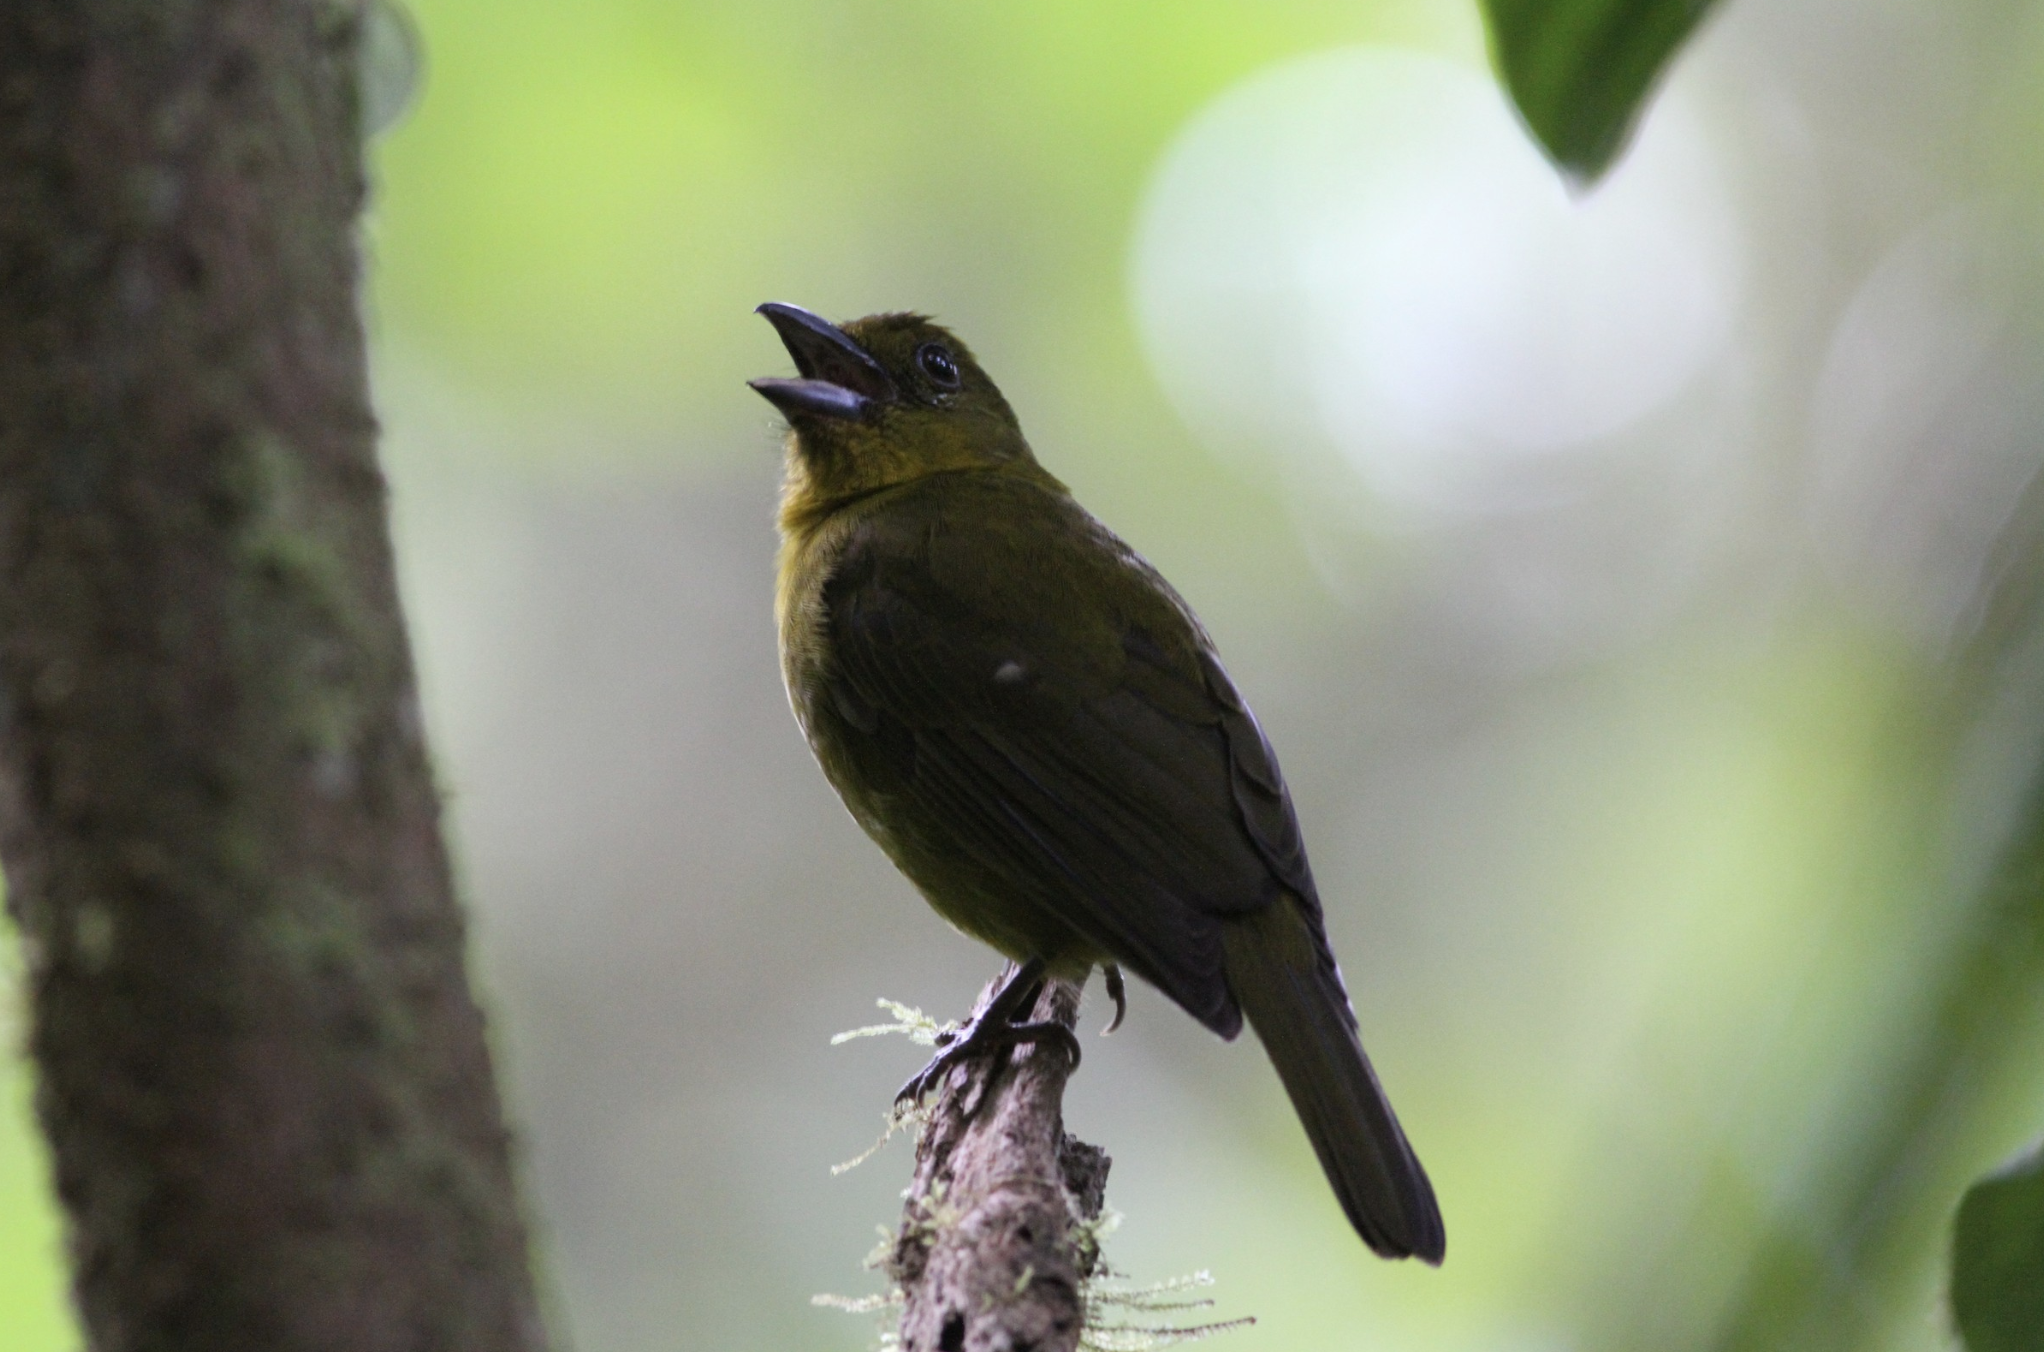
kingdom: Animalia
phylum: Chordata
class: Aves
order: Passeriformes
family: Cardinalidae
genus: Chlorothraupis
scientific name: Chlorothraupis carmioli
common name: Carmiol's tanager
